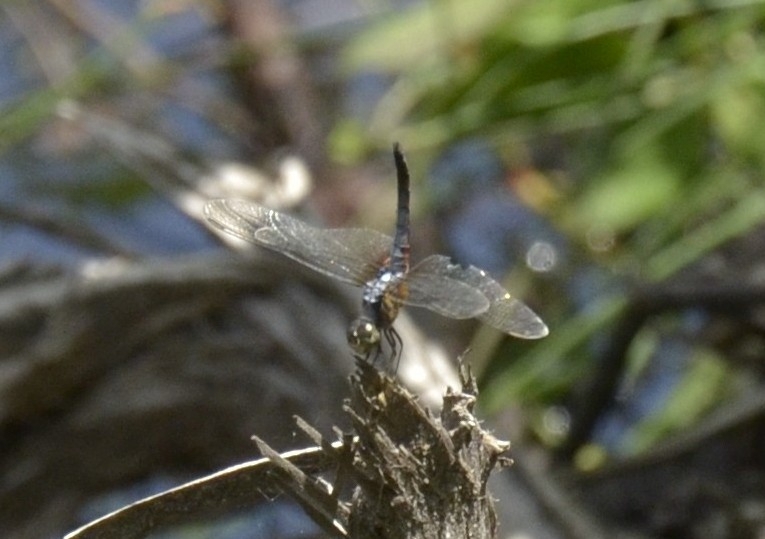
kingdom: Animalia
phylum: Arthropoda
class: Insecta
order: Odonata
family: Libellulidae
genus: Brachydiplax
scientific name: Brachydiplax chalybea
